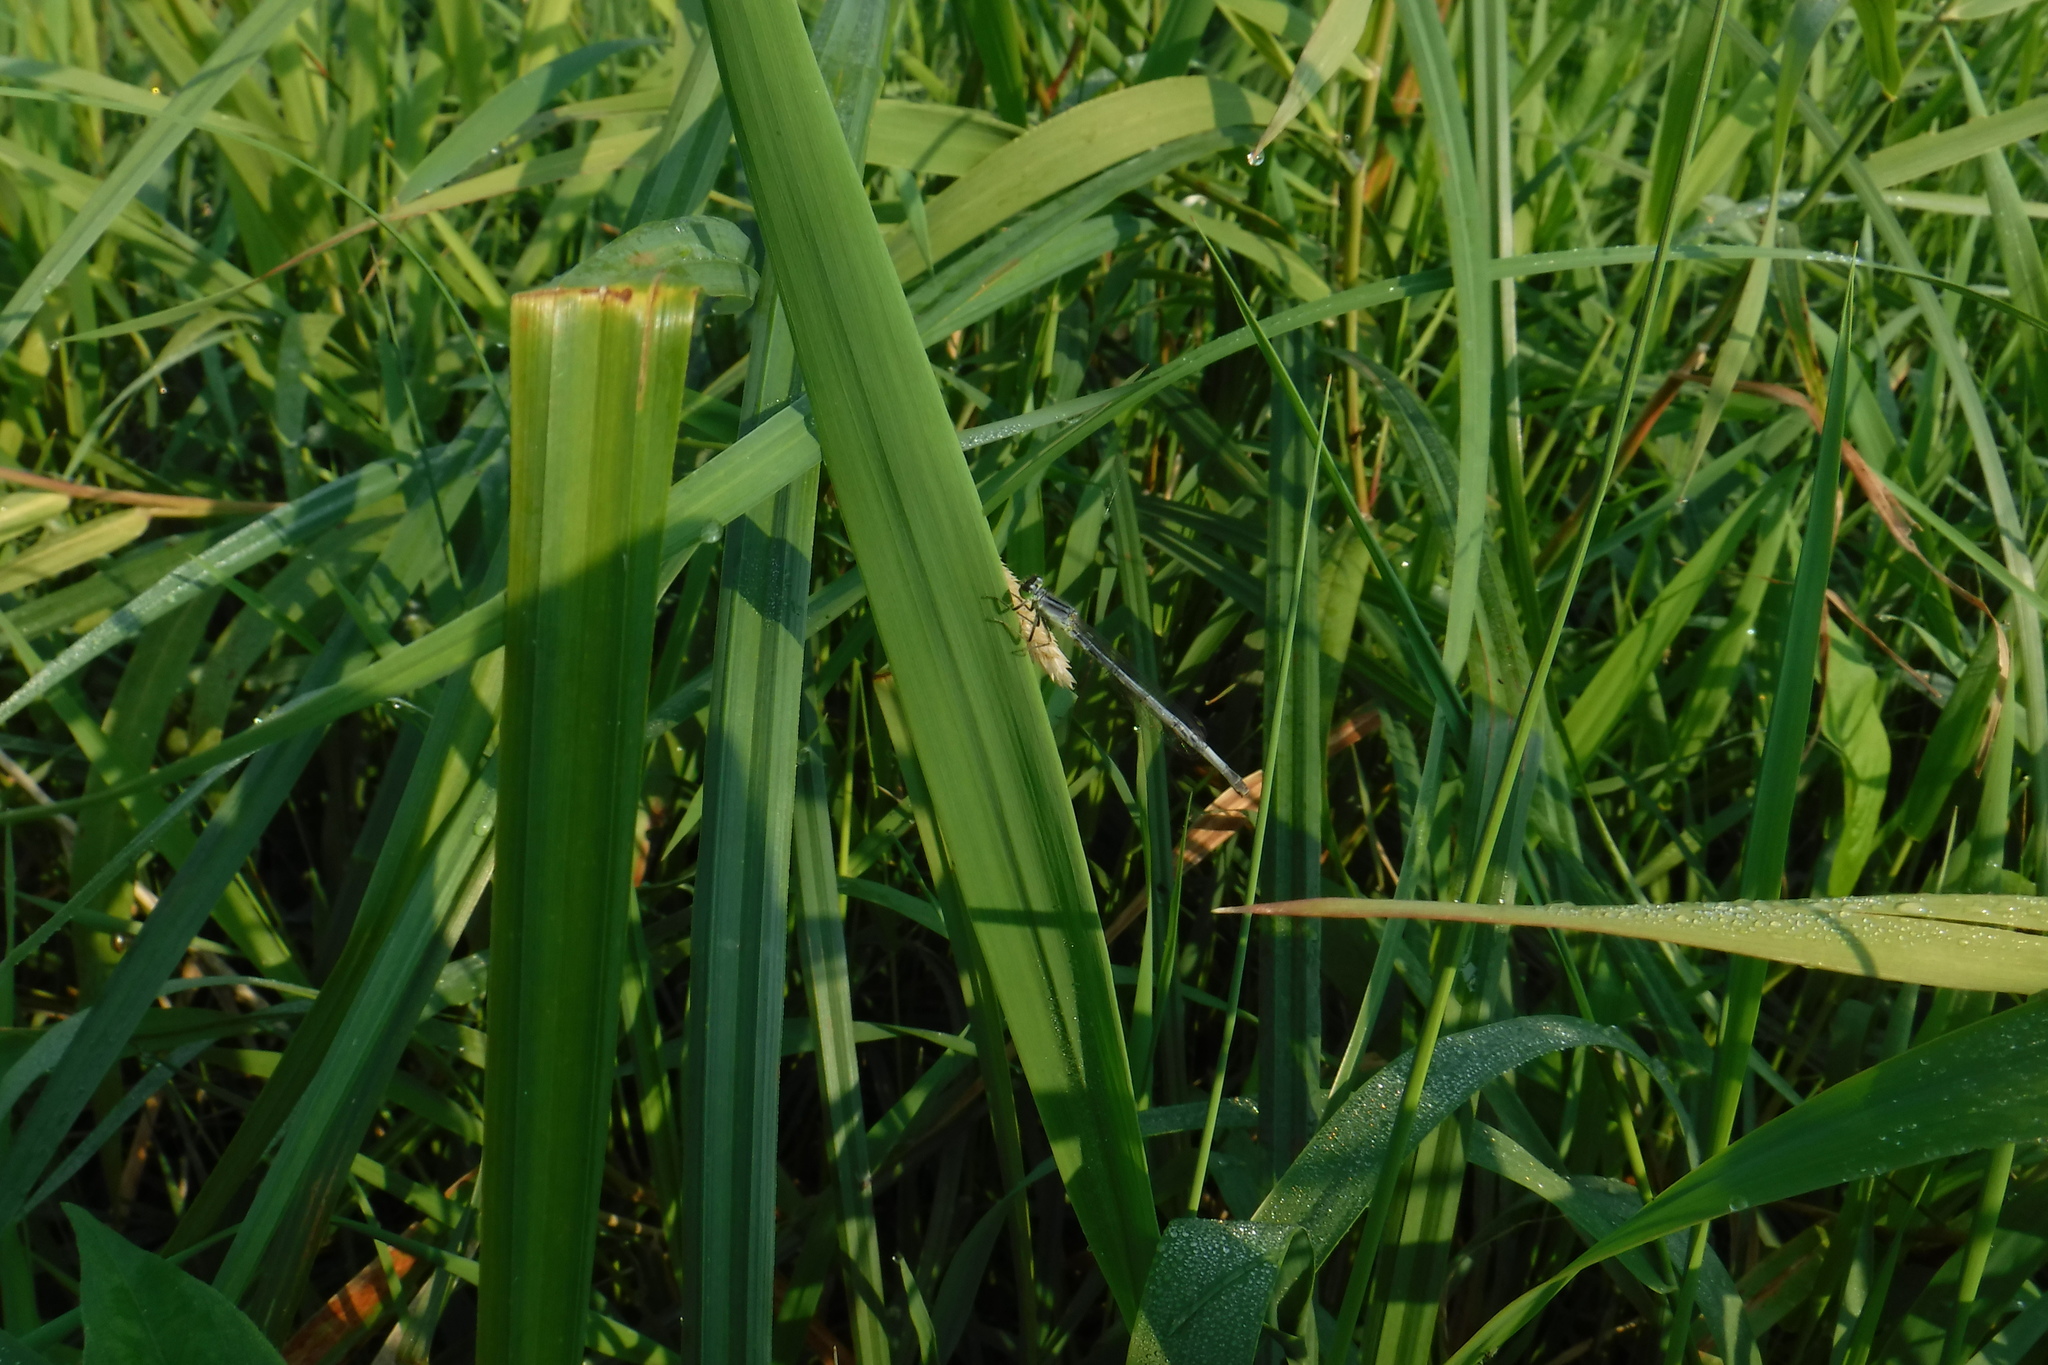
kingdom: Animalia
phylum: Arthropoda
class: Insecta
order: Odonata
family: Coenagrionidae
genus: Ischnura
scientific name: Ischnura verticalis
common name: Eastern forktail
